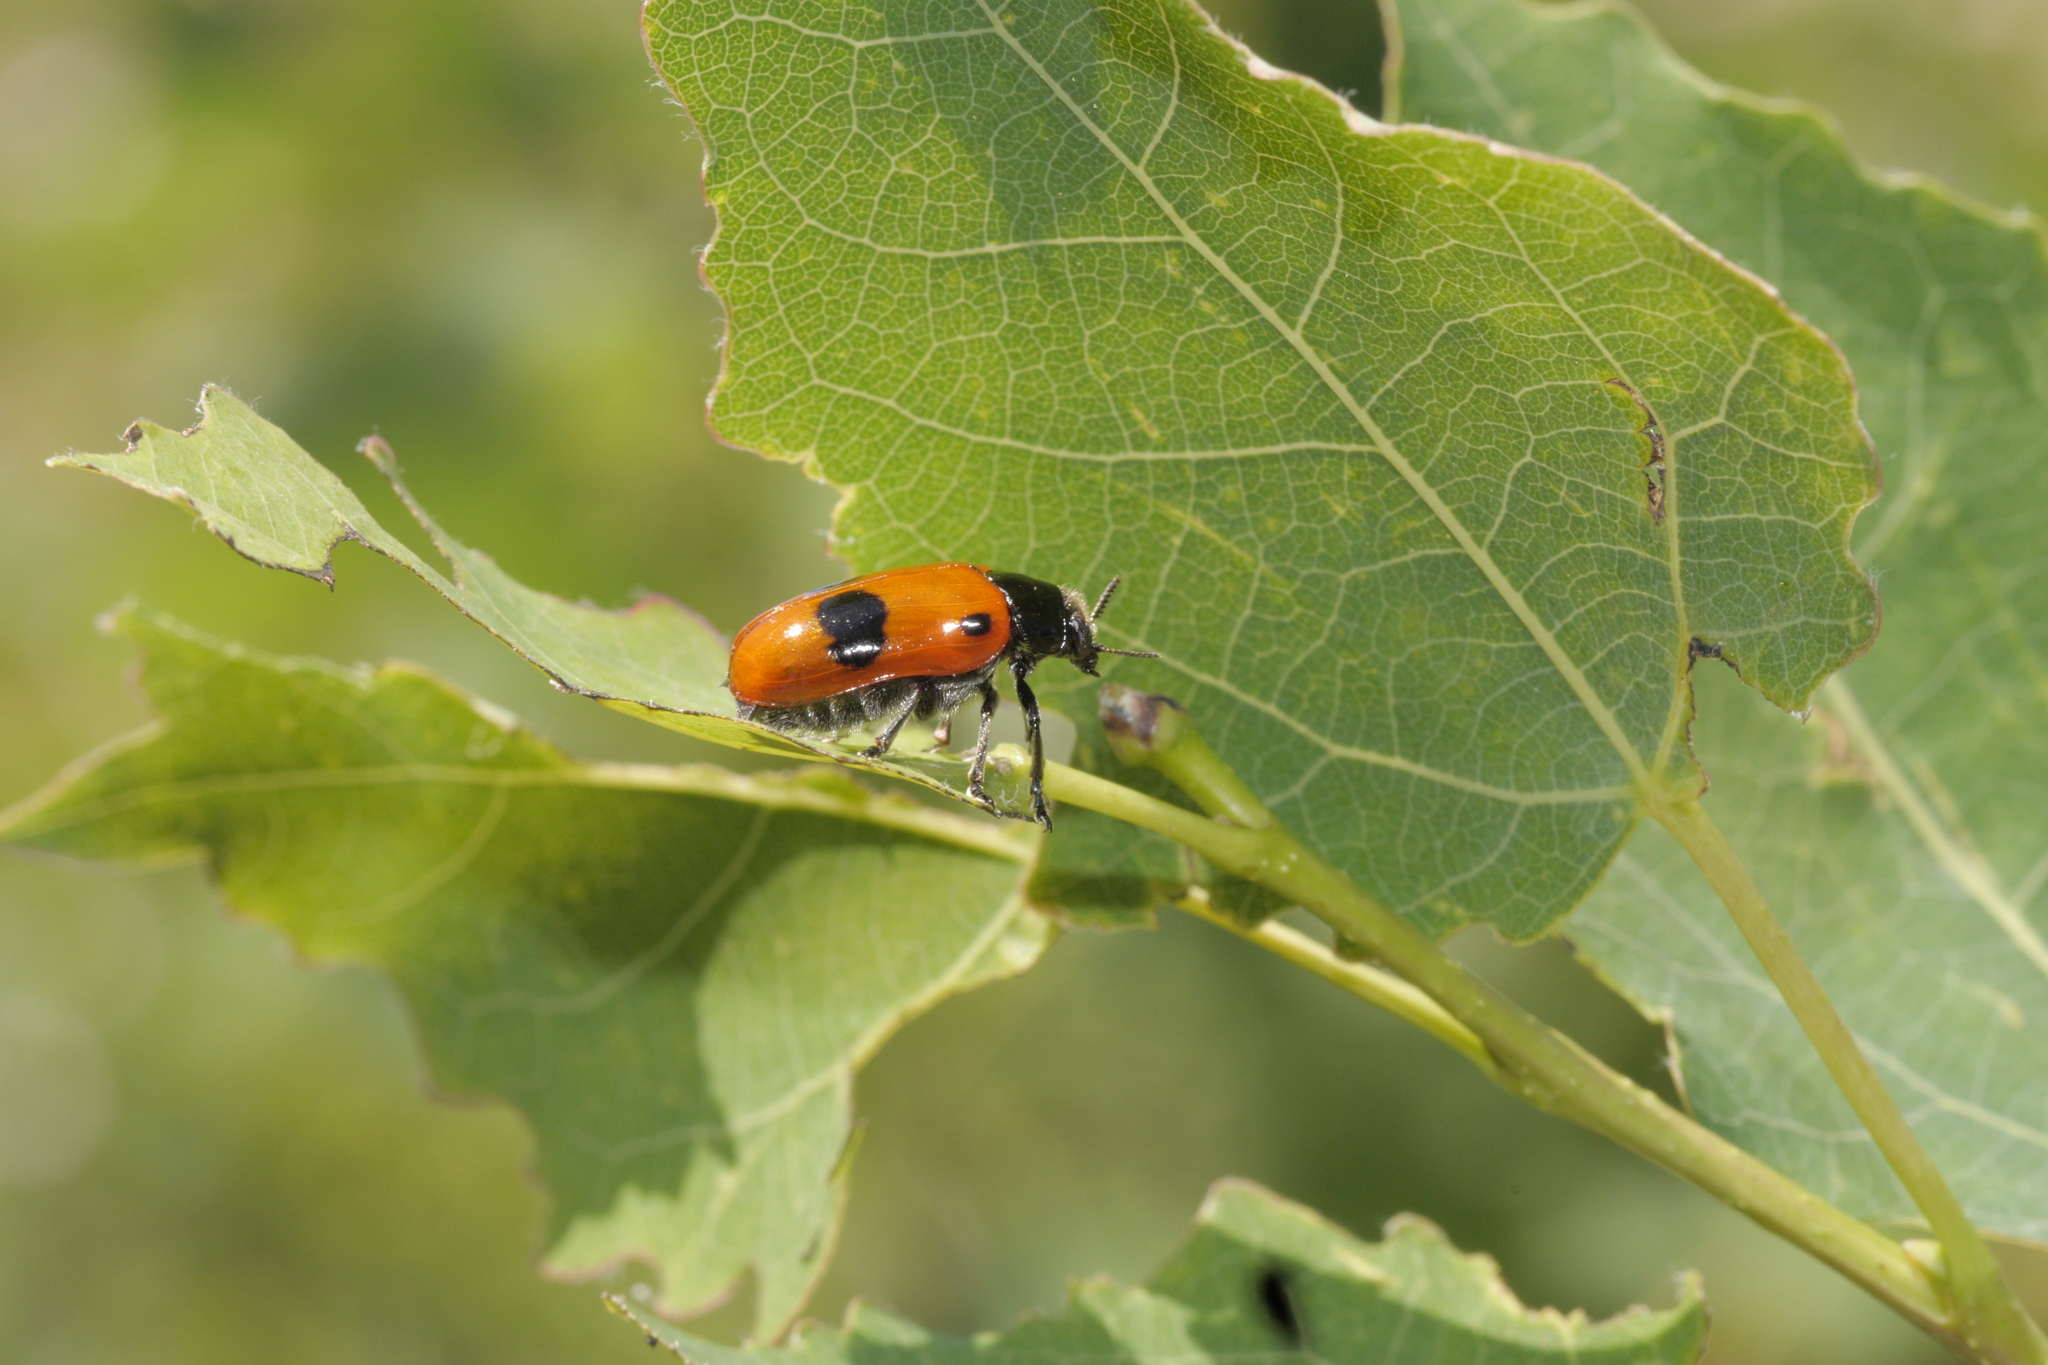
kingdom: Animalia
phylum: Arthropoda
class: Insecta
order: Coleoptera
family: Chrysomelidae
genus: Clytra
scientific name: Clytra laeviuscula
